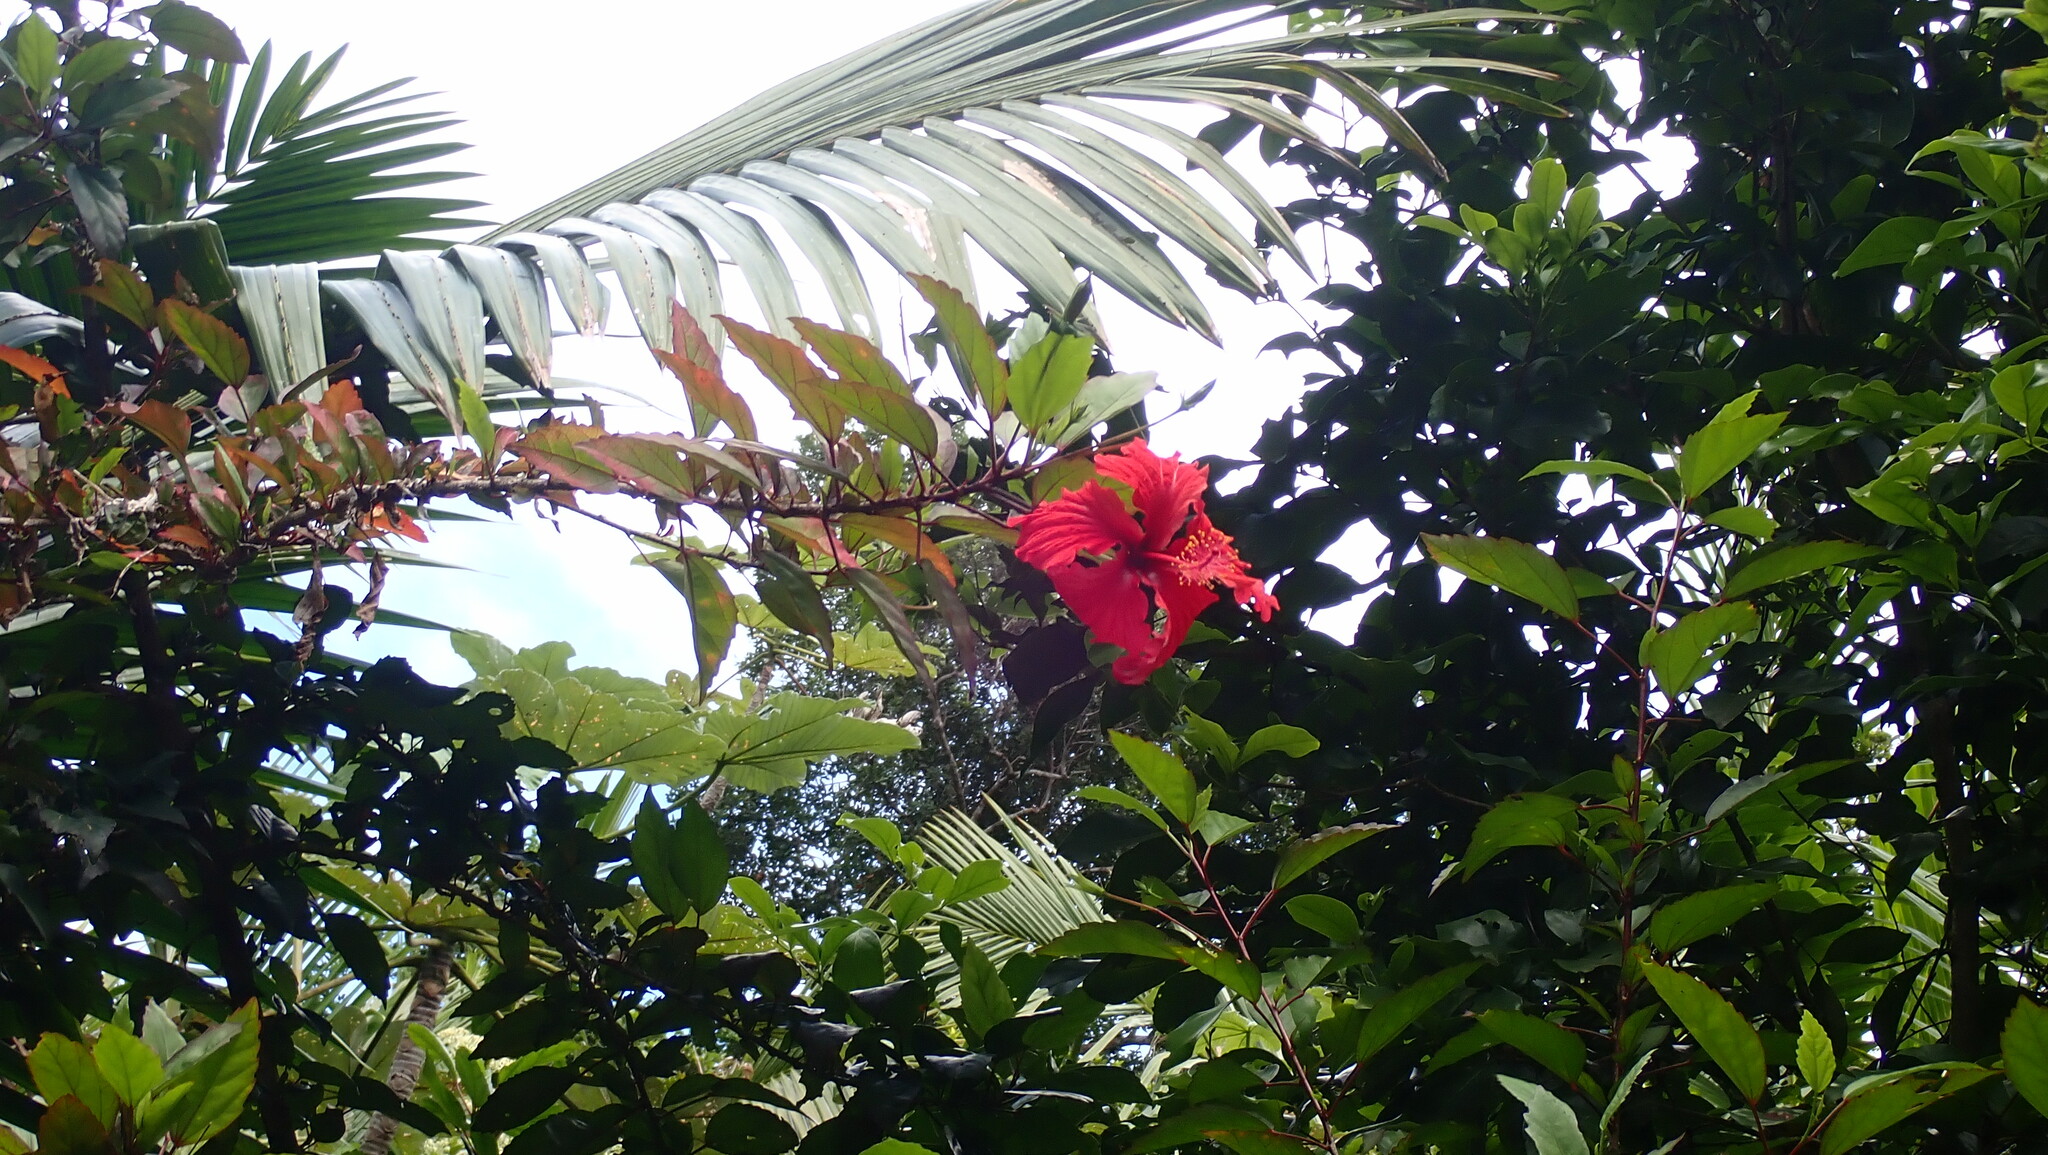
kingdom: Plantae
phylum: Tracheophyta
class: Magnoliopsida
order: Malvales
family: Malvaceae
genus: Hibiscus
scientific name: Hibiscus archeri
